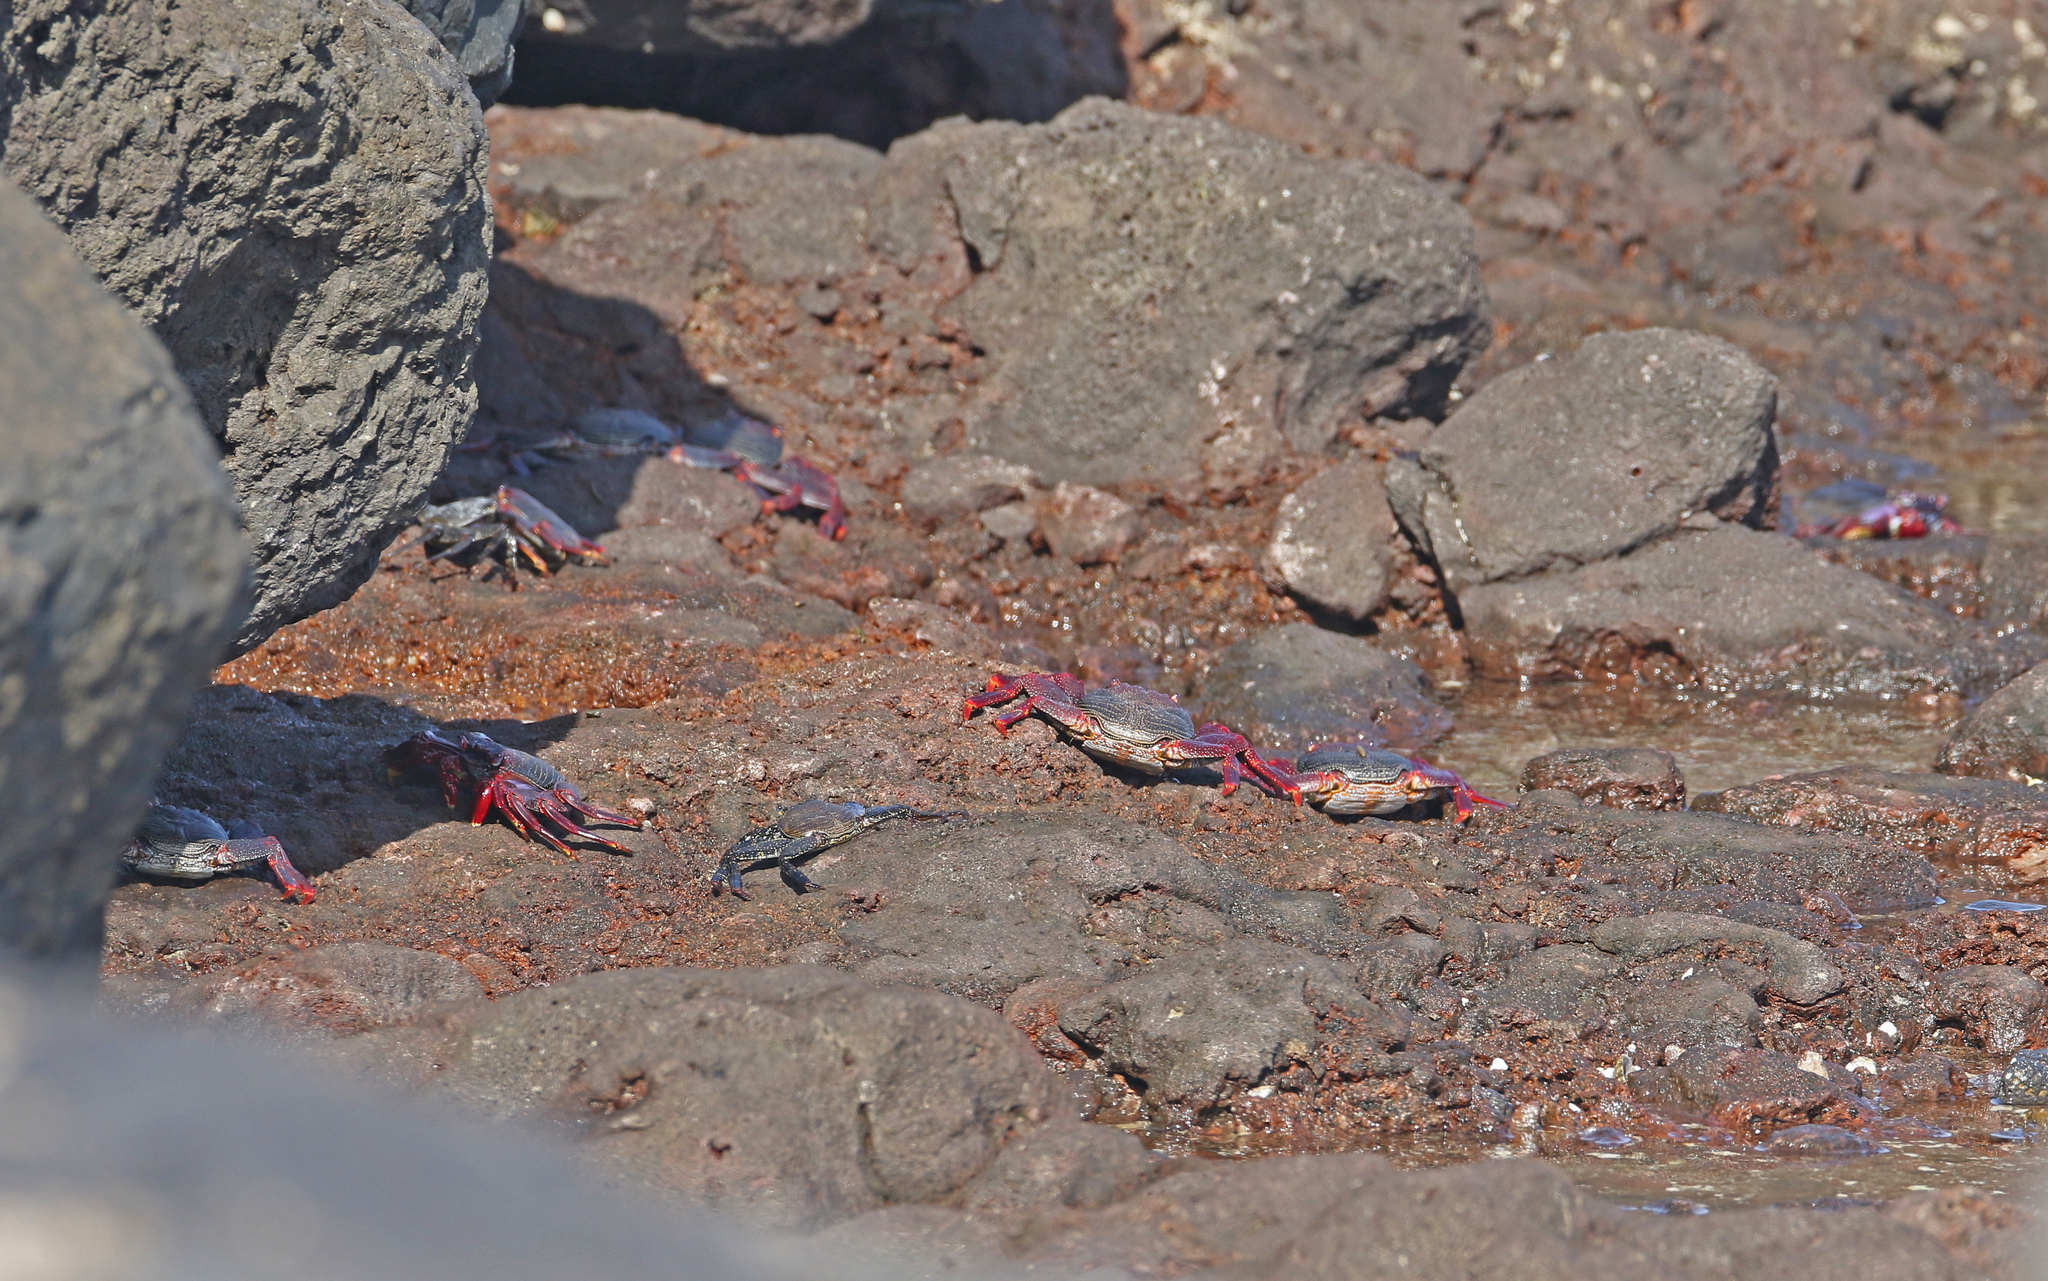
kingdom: Animalia
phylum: Arthropoda
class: Malacostraca
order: Decapoda
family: Grapsidae
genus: Grapsus
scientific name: Grapsus adscensionis
